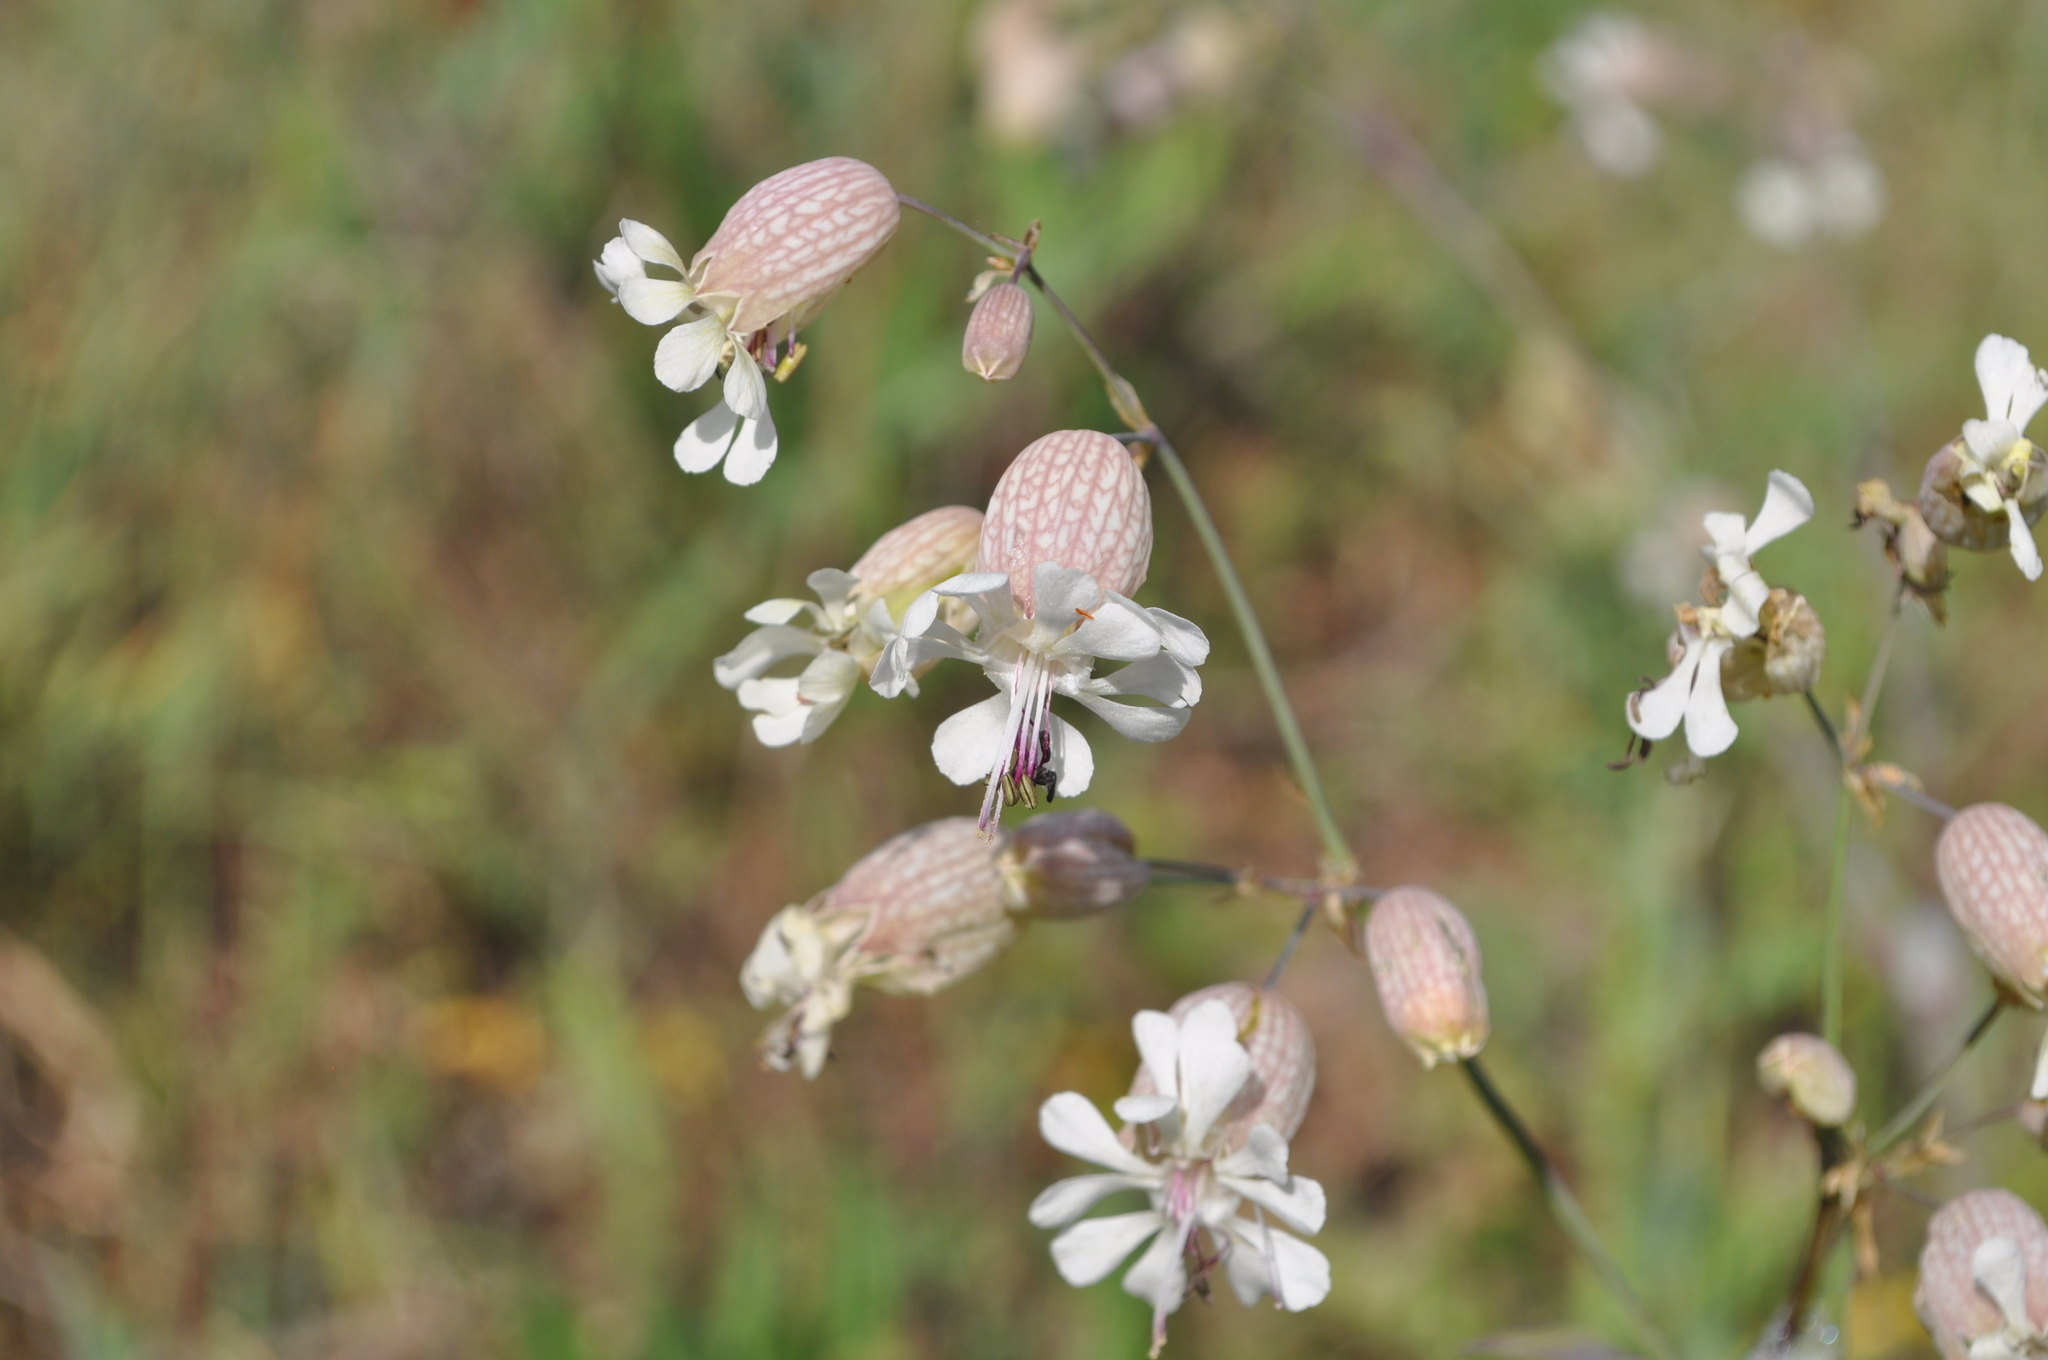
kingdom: Plantae
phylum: Tracheophyta
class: Magnoliopsida
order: Caryophyllales
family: Caryophyllaceae
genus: Silene
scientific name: Silene vulgaris
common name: Bladder campion
